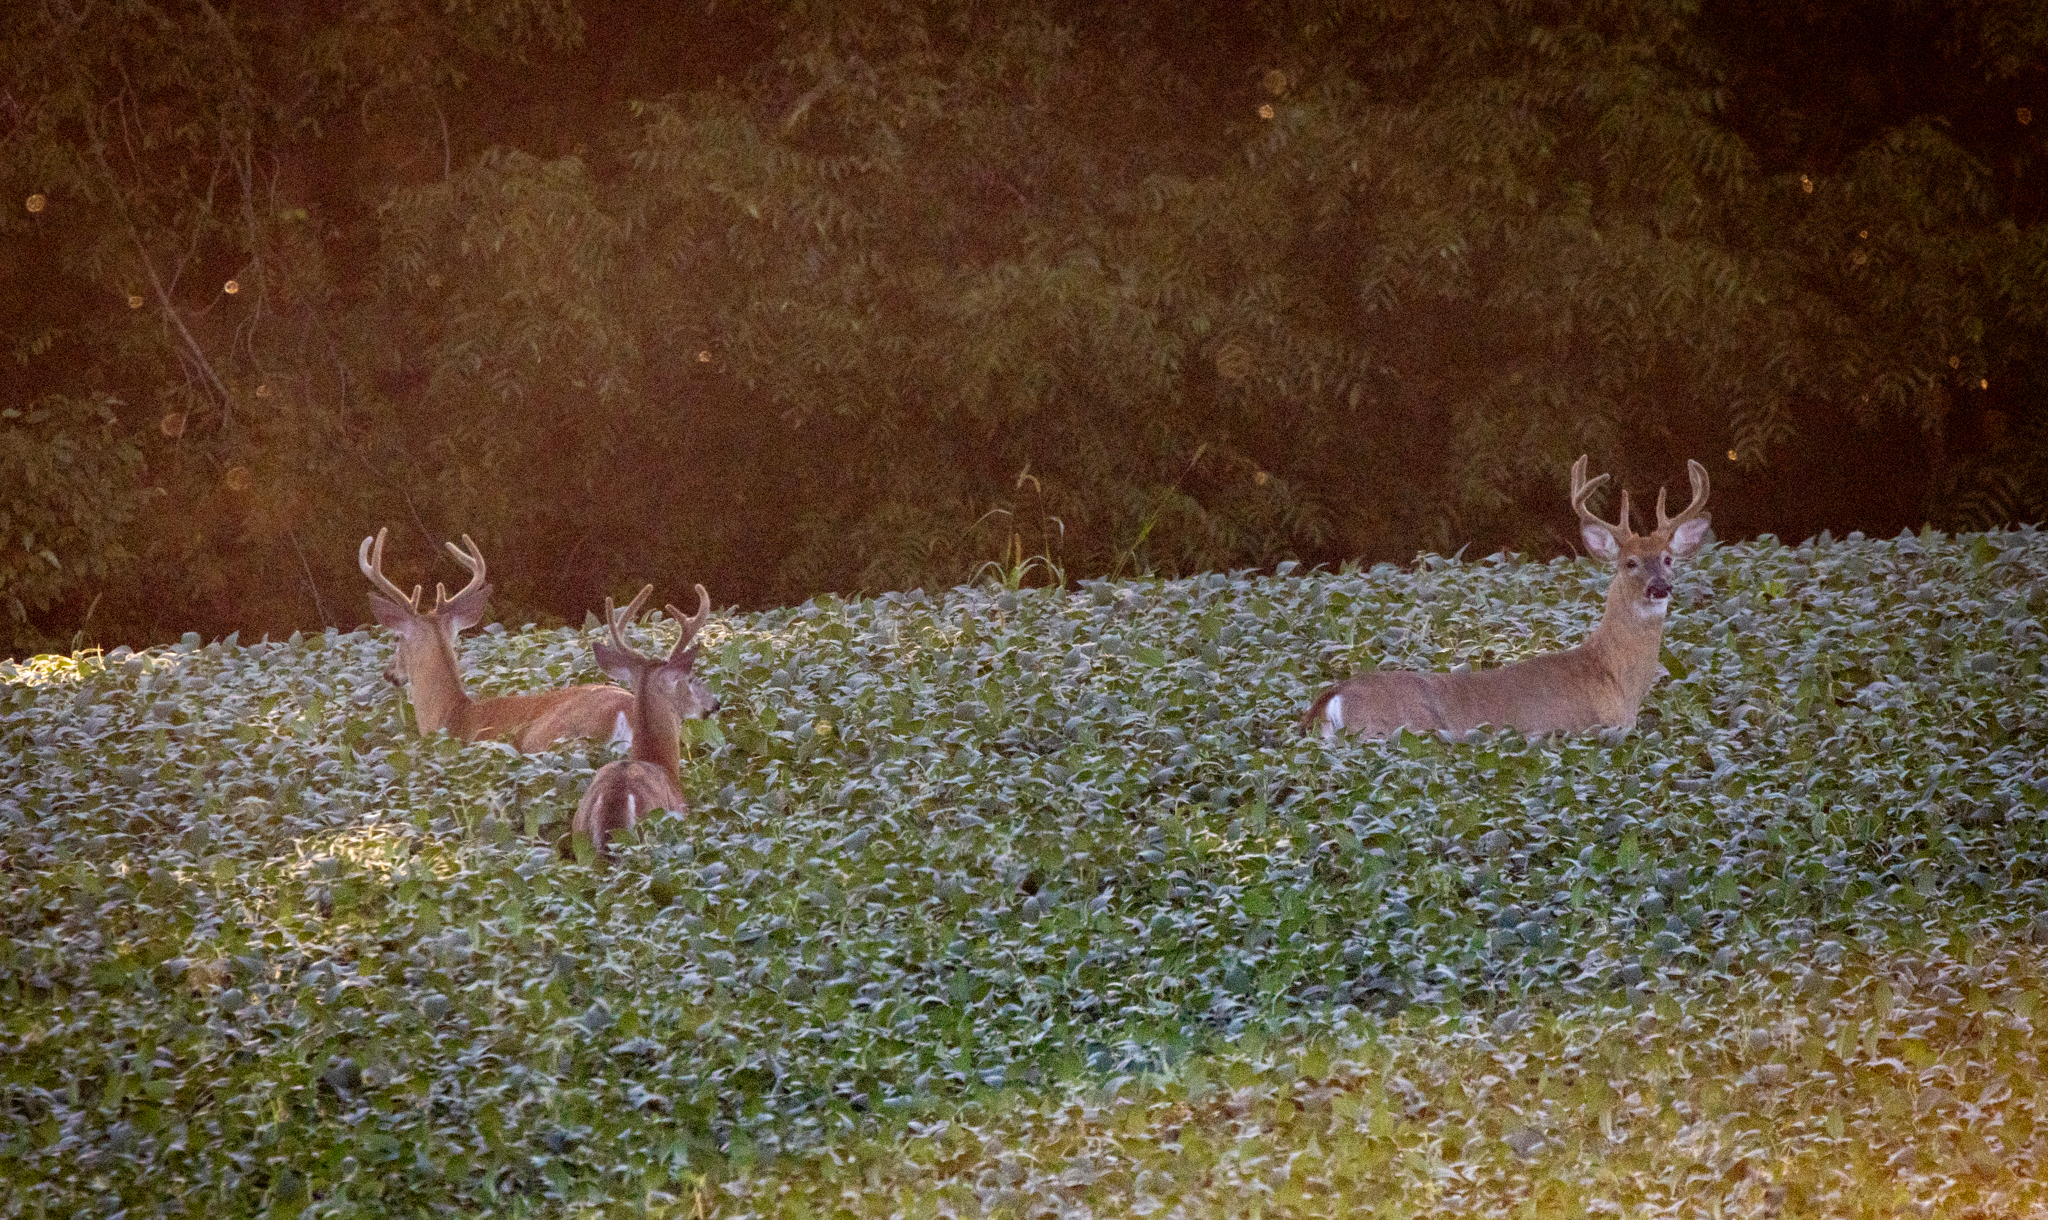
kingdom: Animalia
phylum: Chordata
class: Mammalia
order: Artiodactyla
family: Cervidae
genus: Odocoileus
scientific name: Odocoileus virginianus
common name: White-tailed deer
